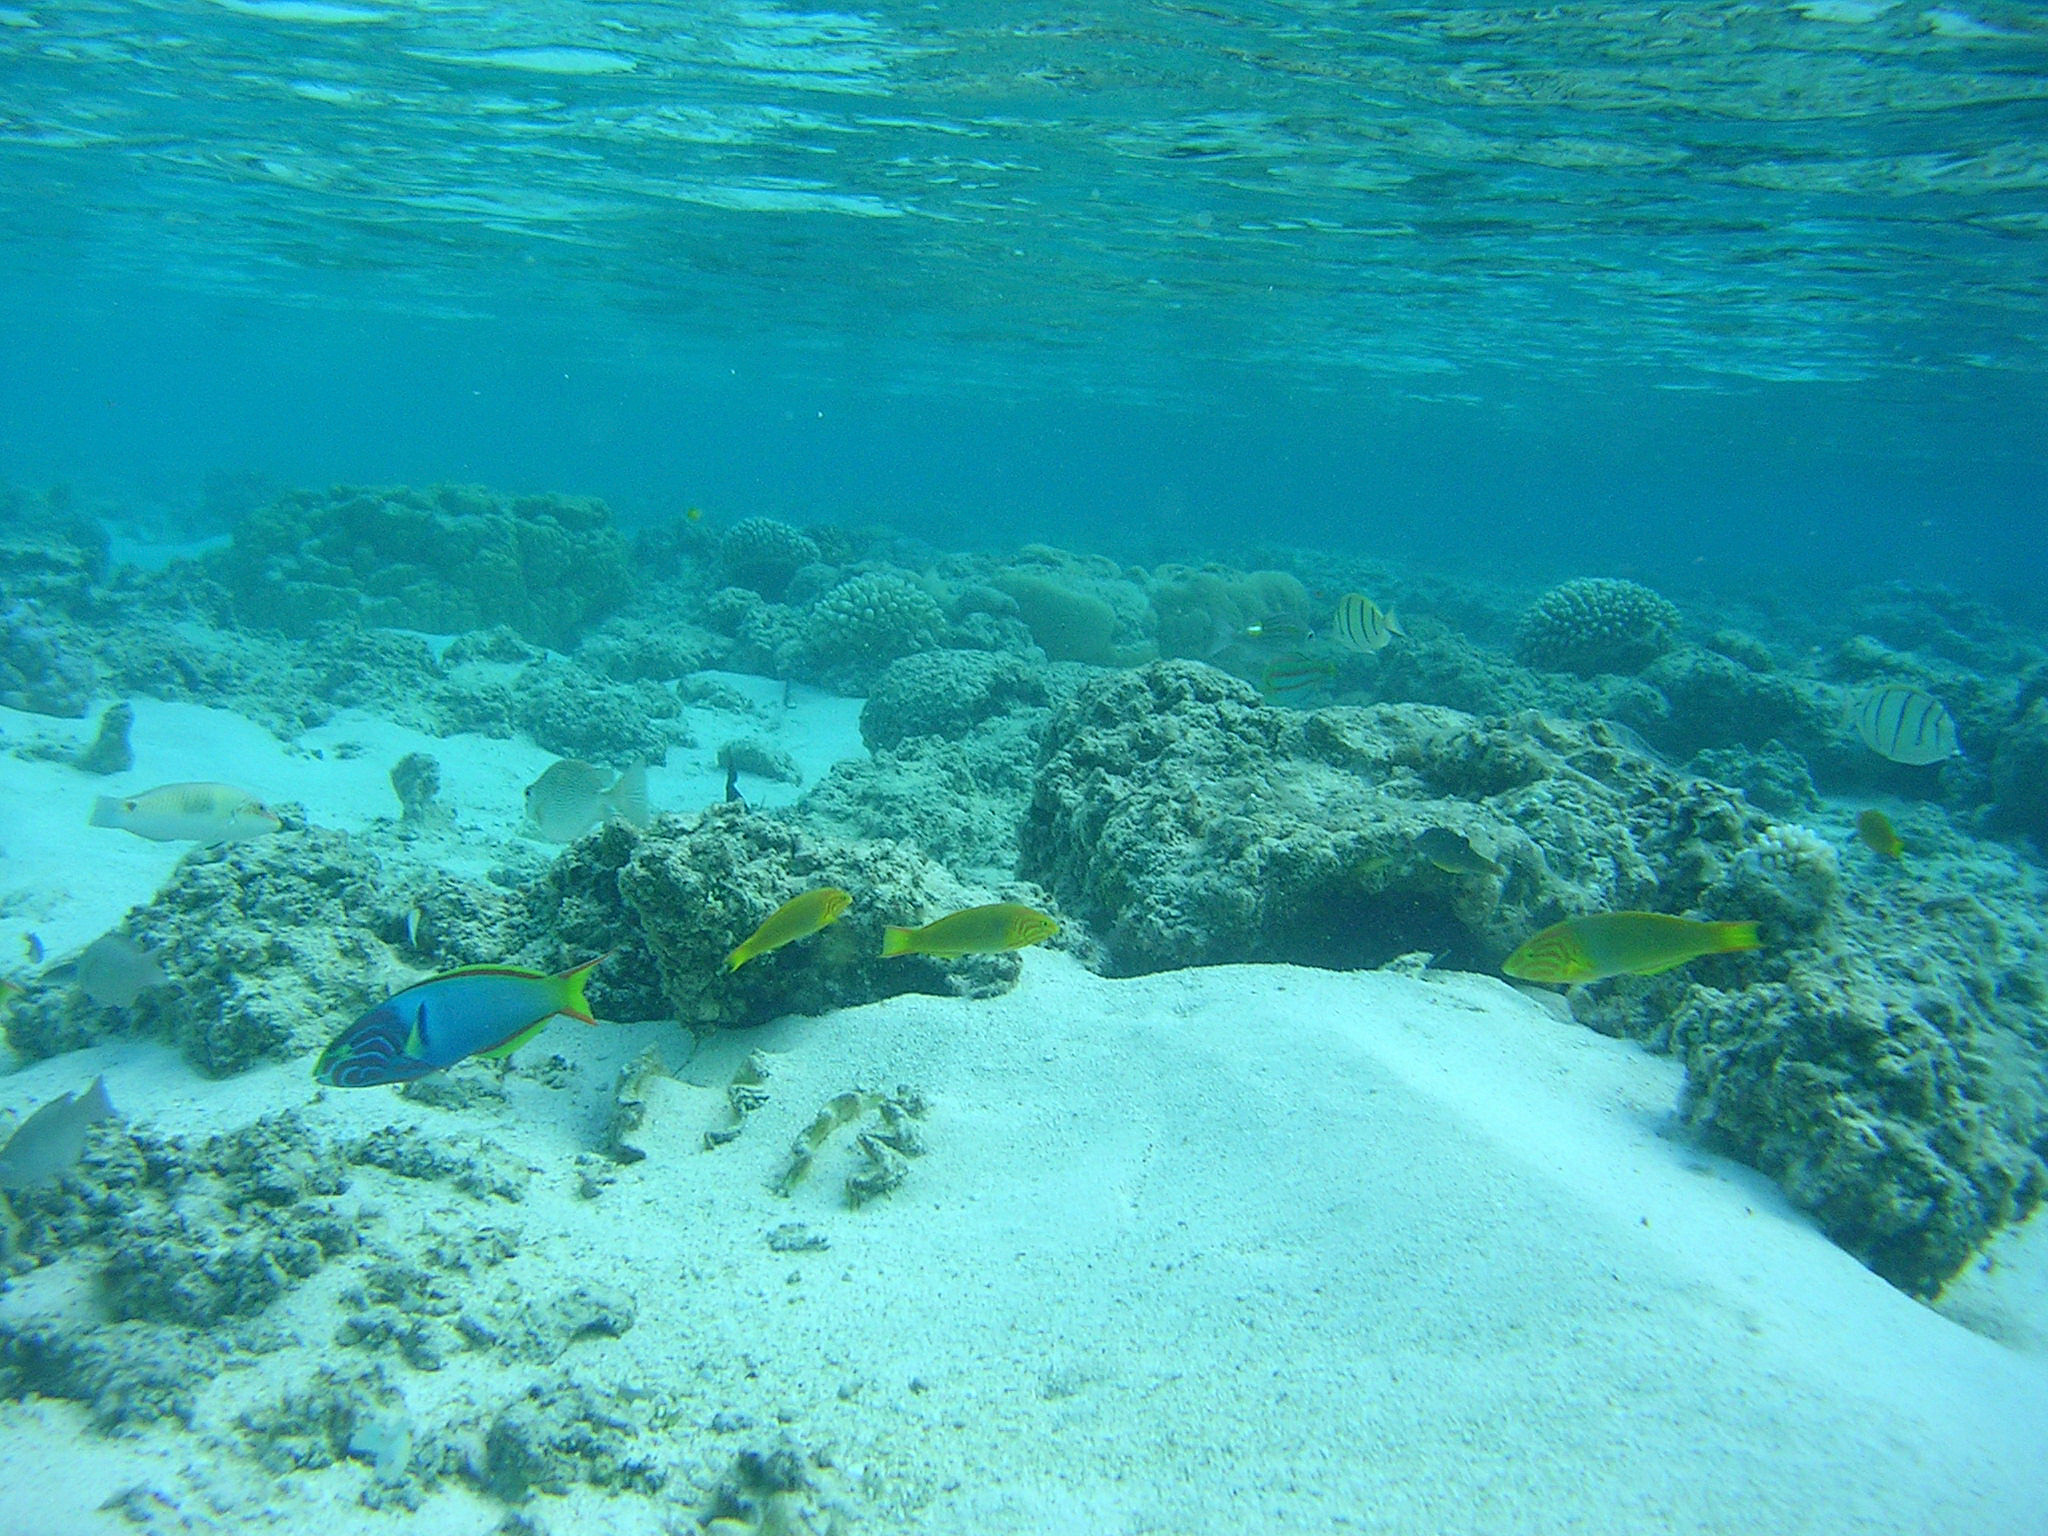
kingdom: Animalia
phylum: Chordata
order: Perciformes
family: Labridae
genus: Thalassoma
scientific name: Thalassoma lutescens
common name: Green moon wrasse
